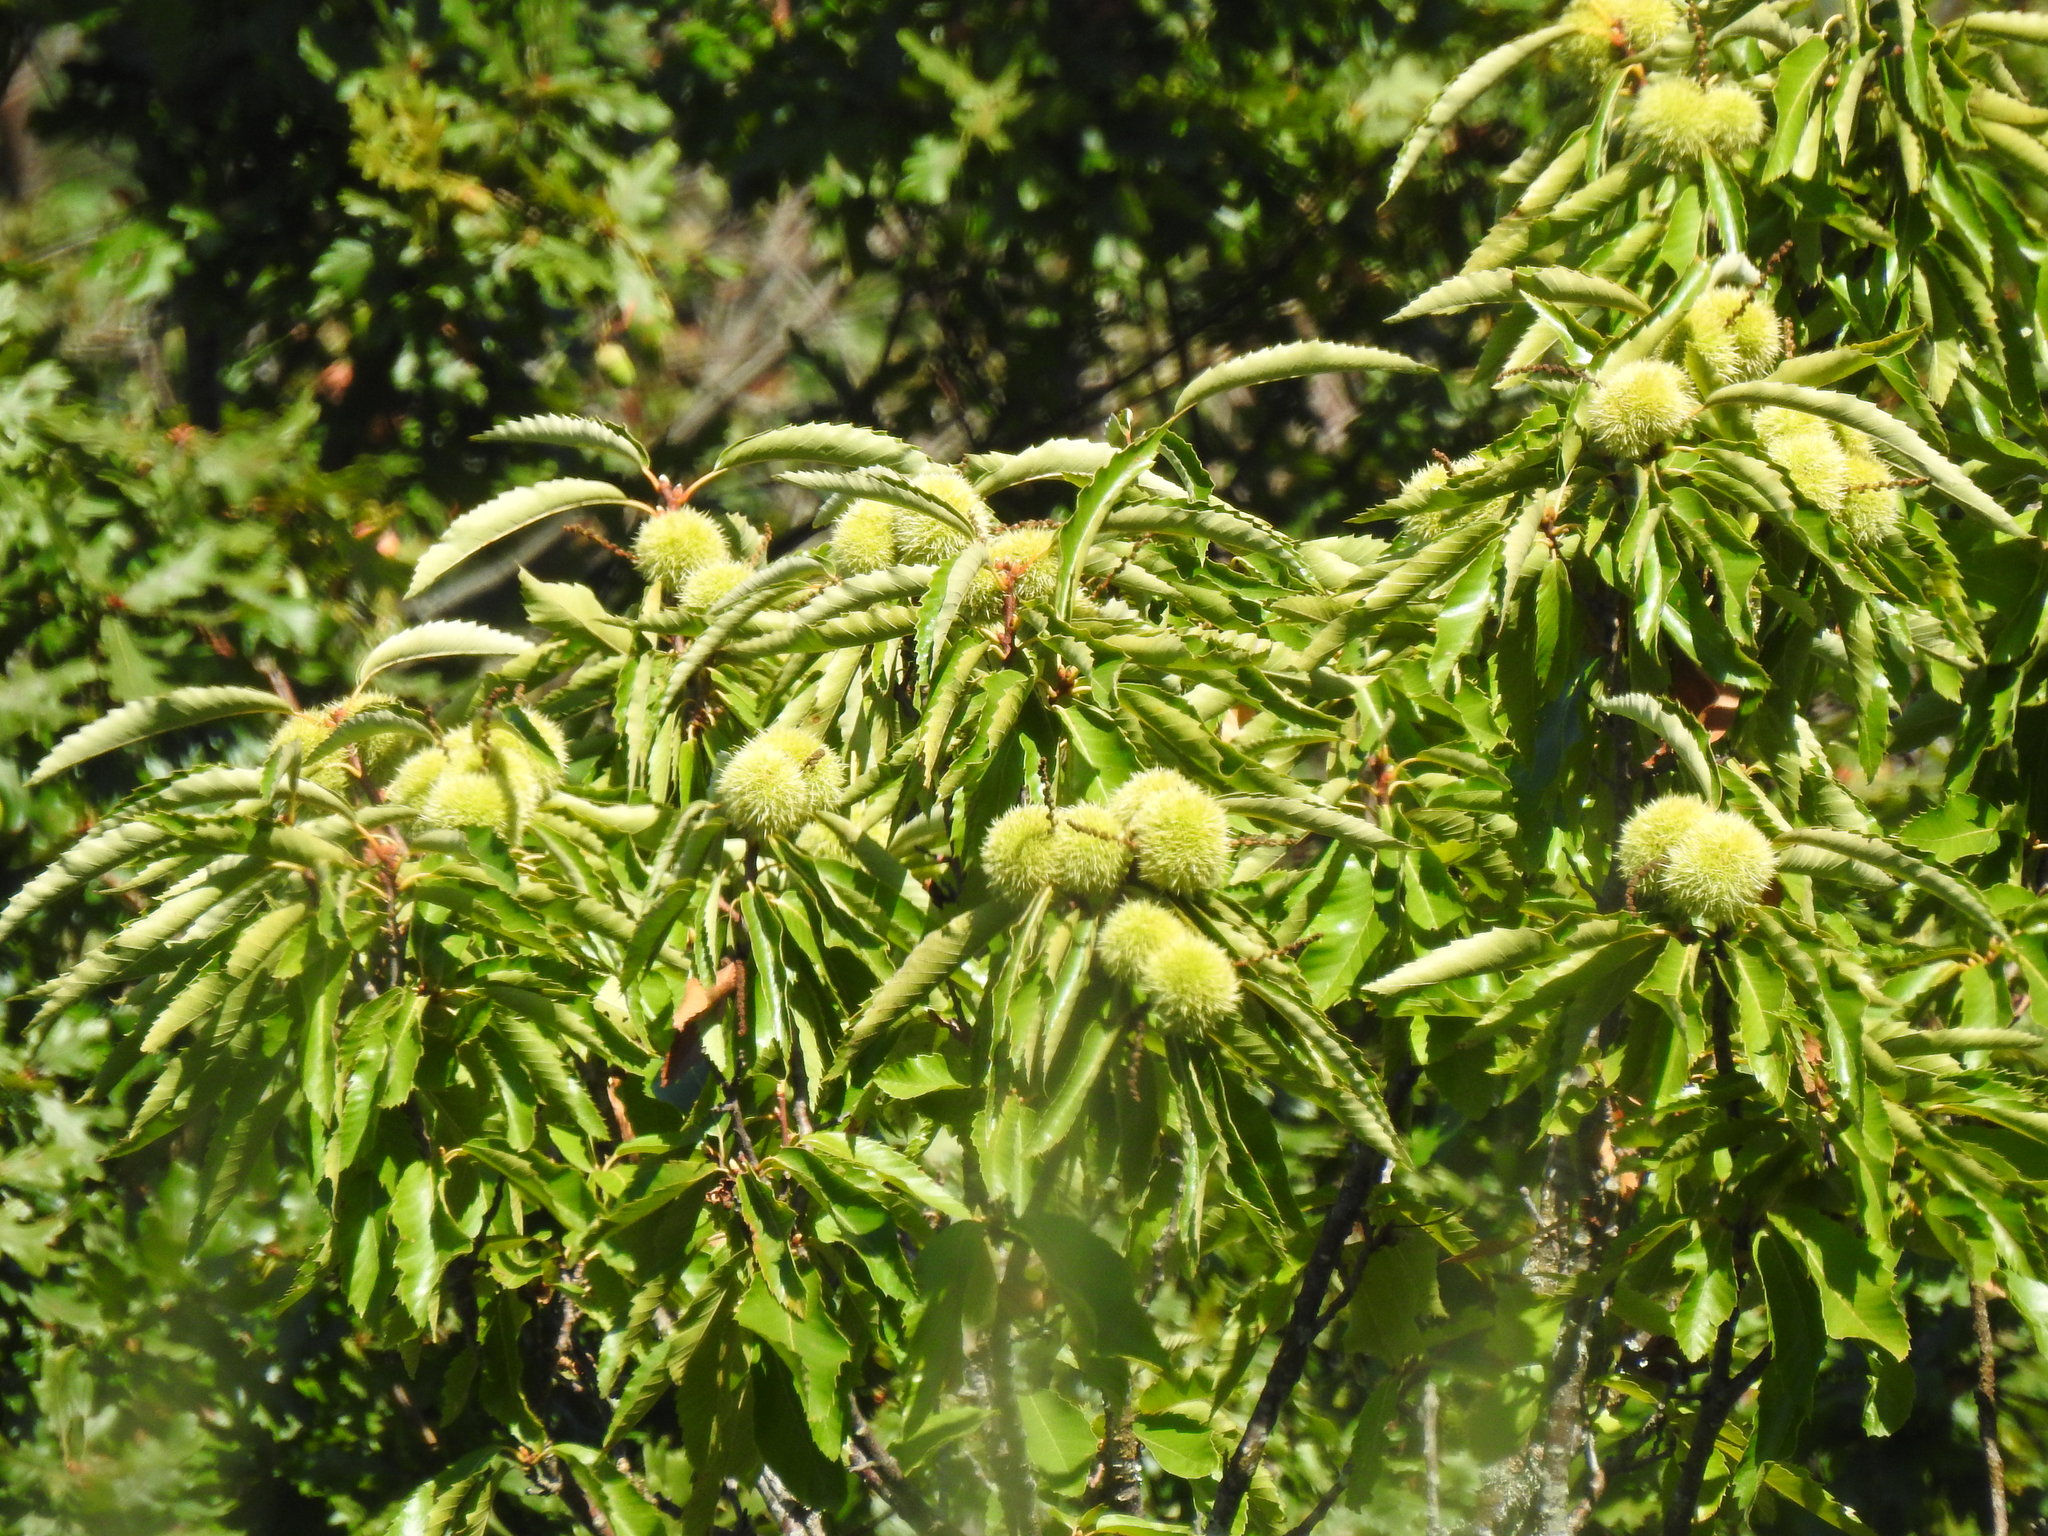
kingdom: Plantae
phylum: Tracheophyta
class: Magnoliopsida
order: Fagales
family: Fagaceae
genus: Castanea
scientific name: Castanea sativa
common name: Sweet chestnut
